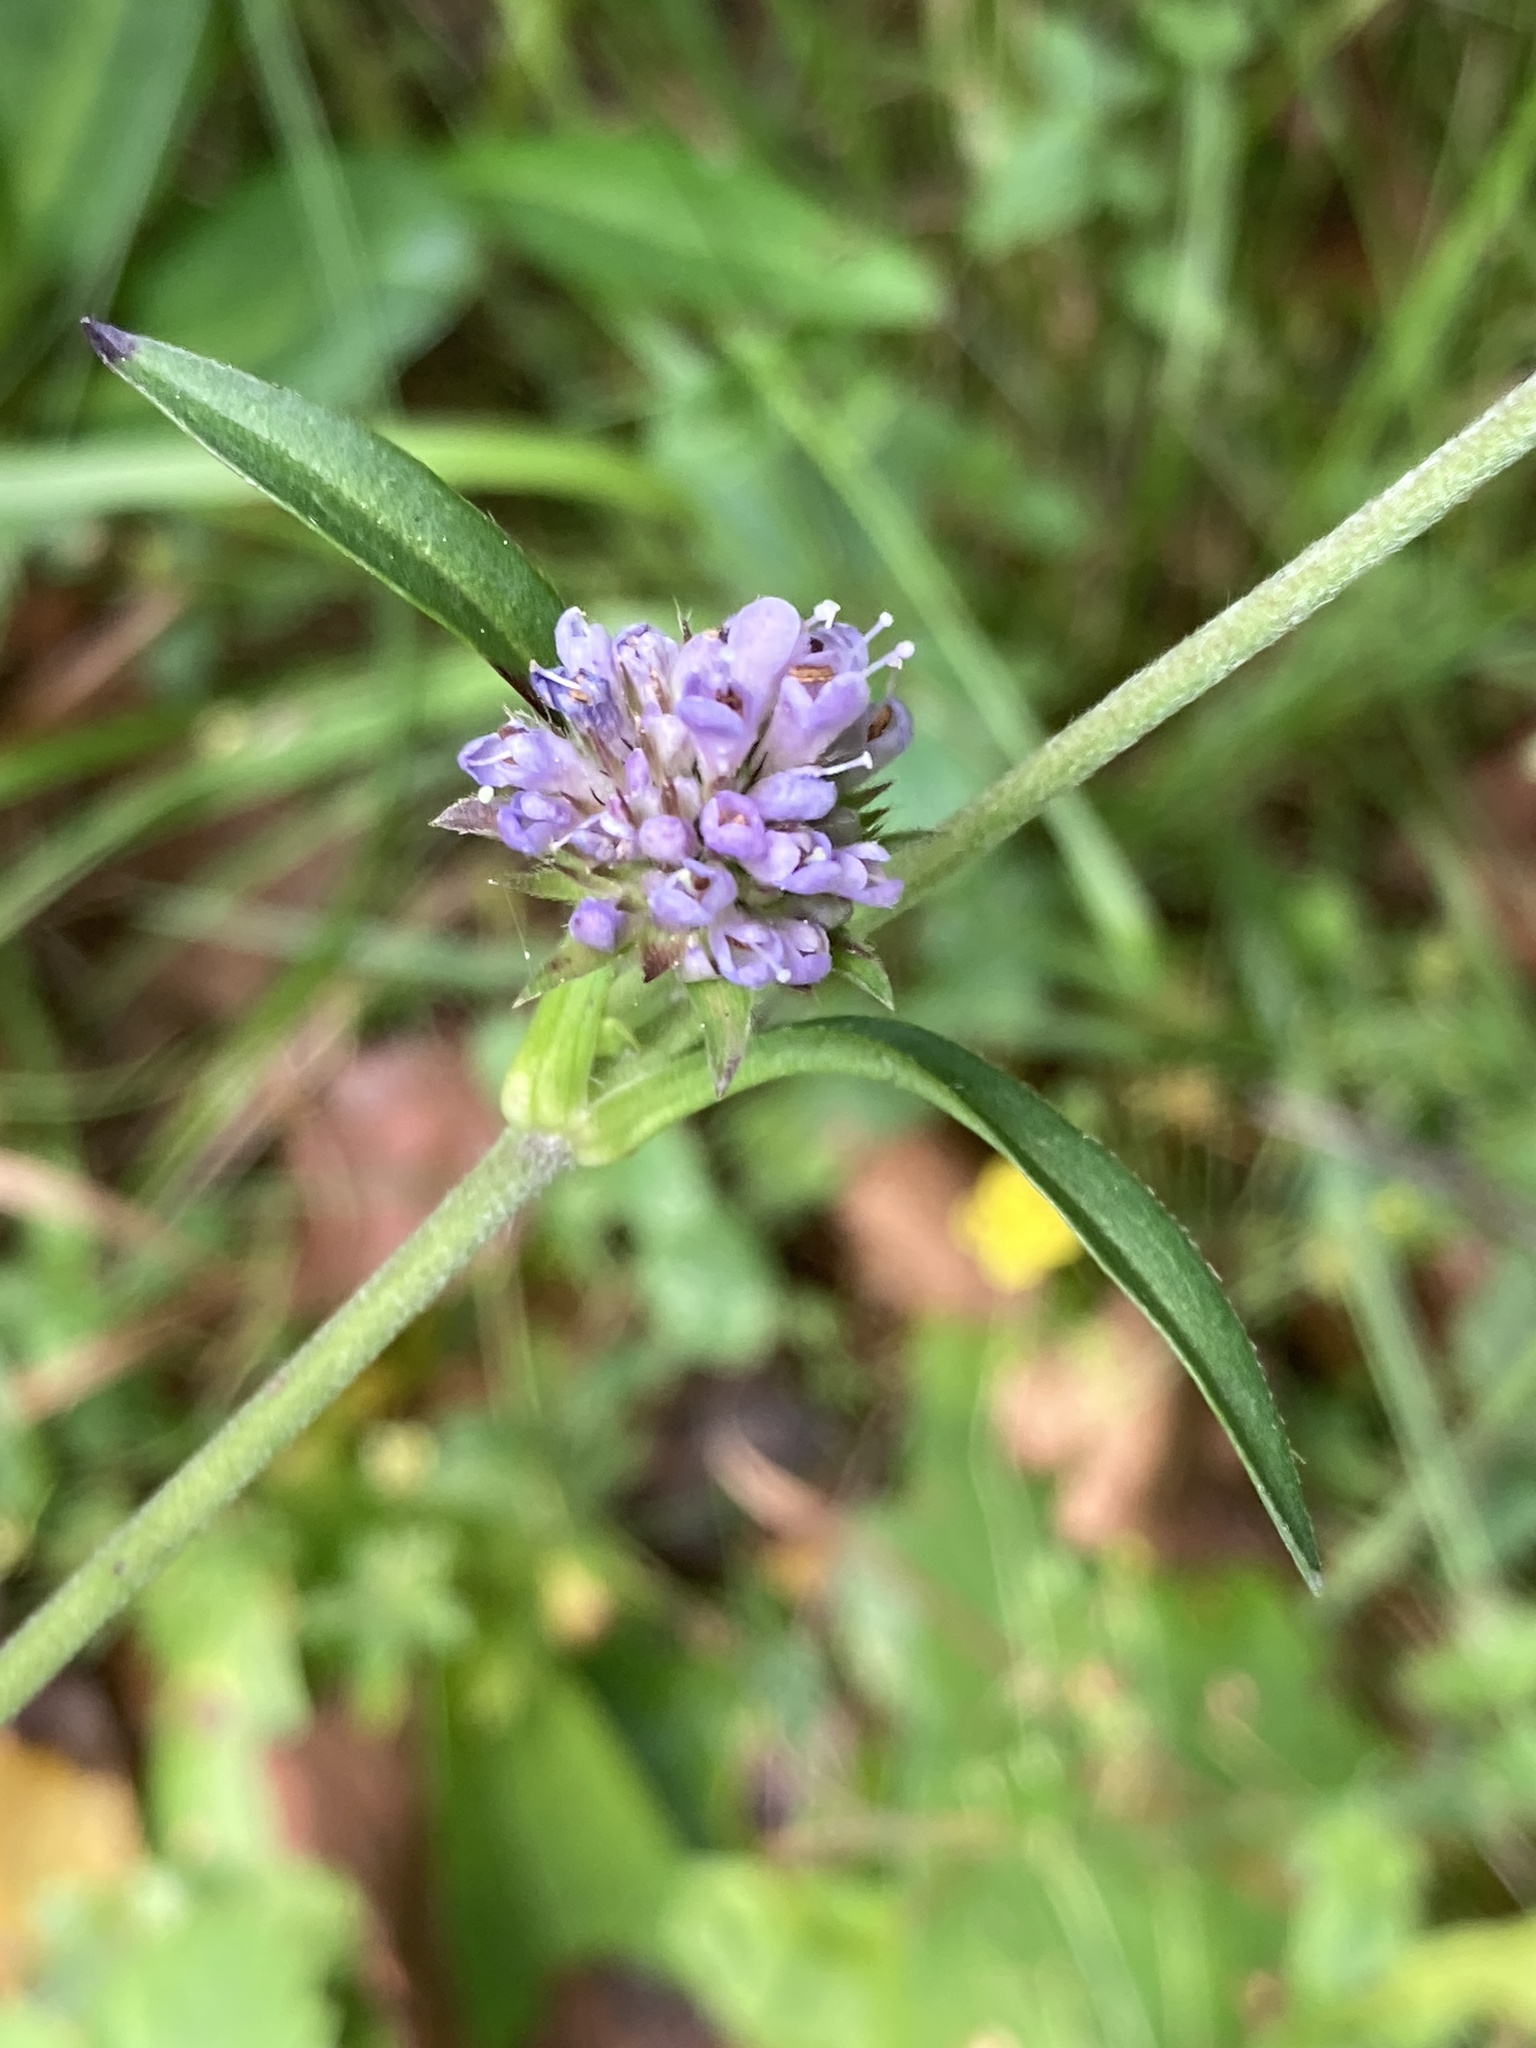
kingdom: Plantae
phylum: Tracheophyta
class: Magnoliopsida
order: Dipsacales
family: Caprifoliaceae
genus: Succisa
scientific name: Succisa pratensis
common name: Devil's-bit
